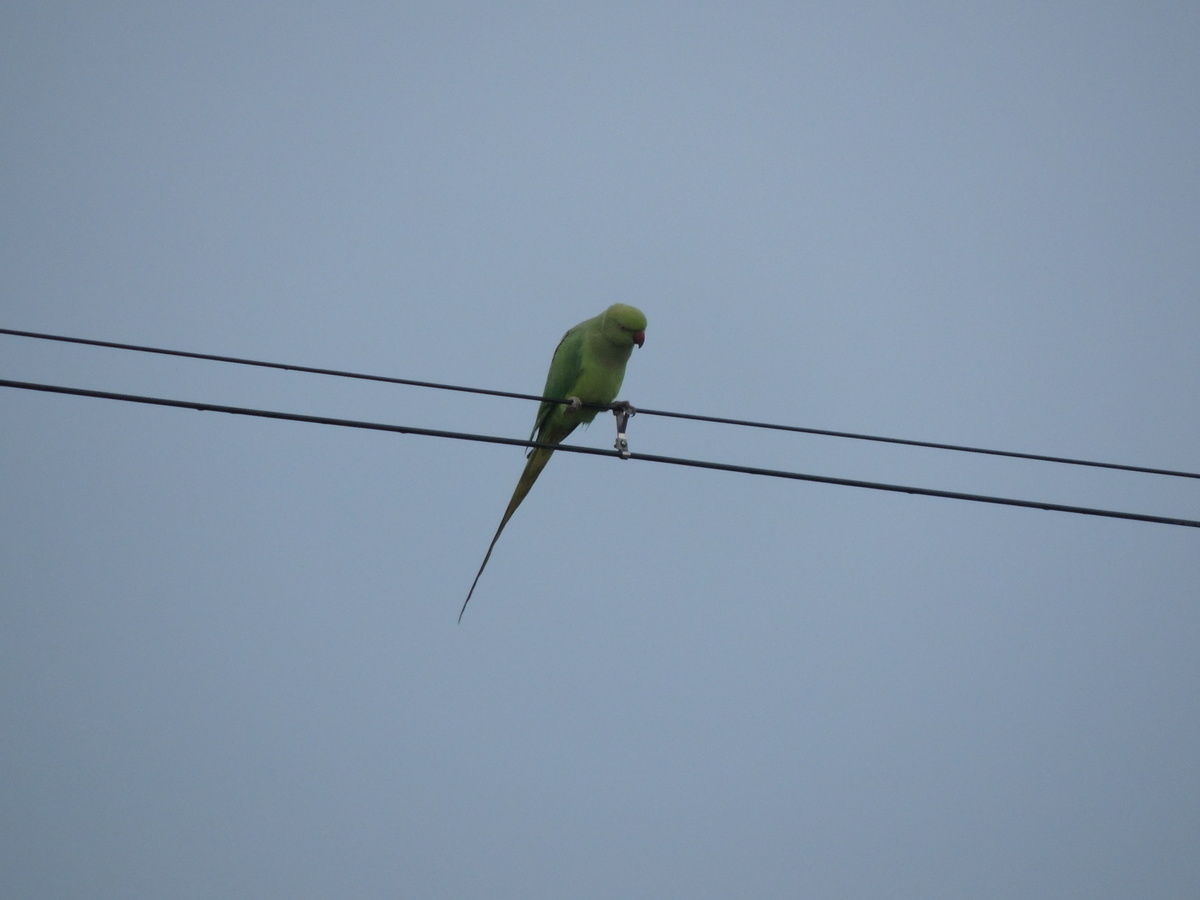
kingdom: Animalia
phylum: Chordata
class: Aves
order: Psittaciformes
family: Psittacidae
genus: Psittacula
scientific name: Psittacula krameri
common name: Rose-ringed parakeet
